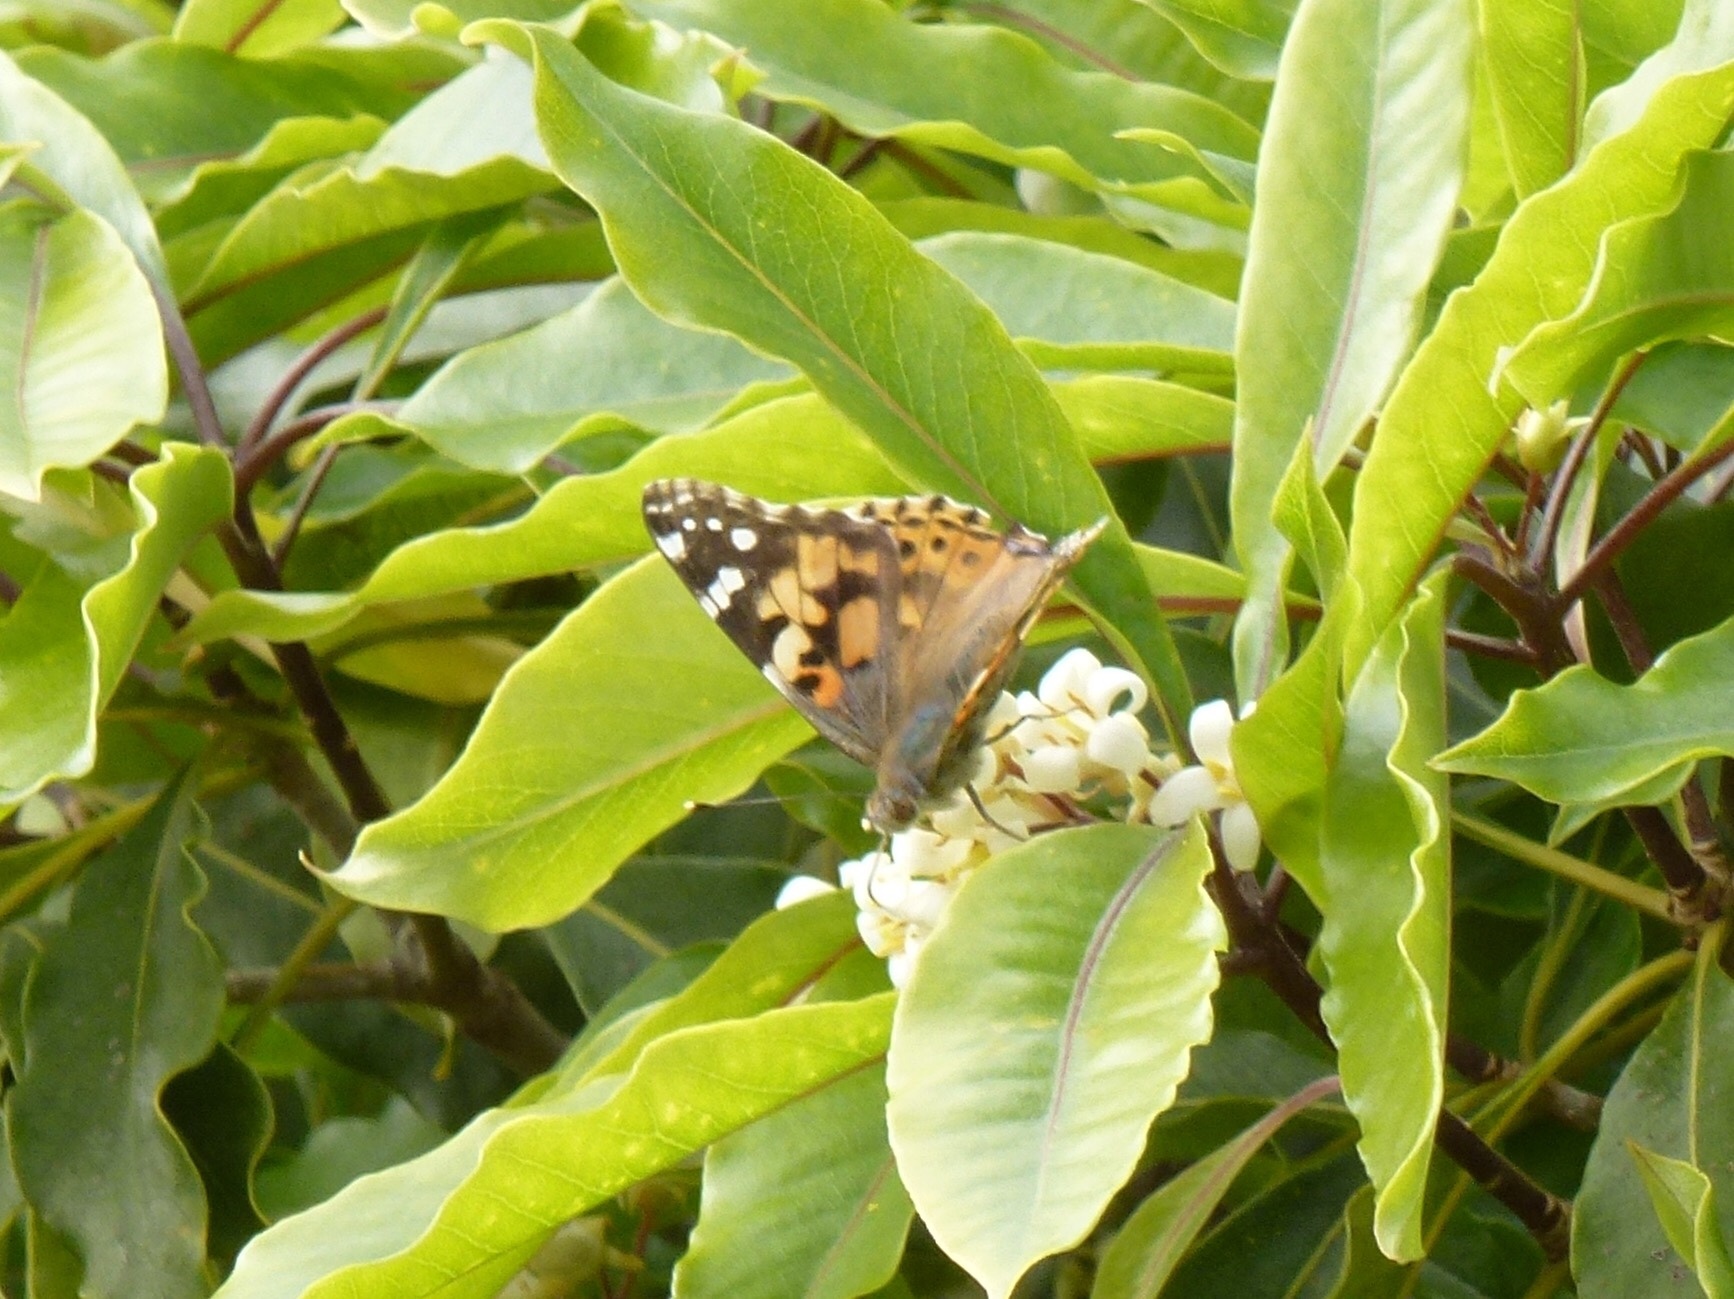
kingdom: Animalia
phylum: Arthropoda
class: Insecta
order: Lepidoptera
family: Nymphalidae
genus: Vanessa
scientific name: Vanessa cardui
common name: Painted lady
